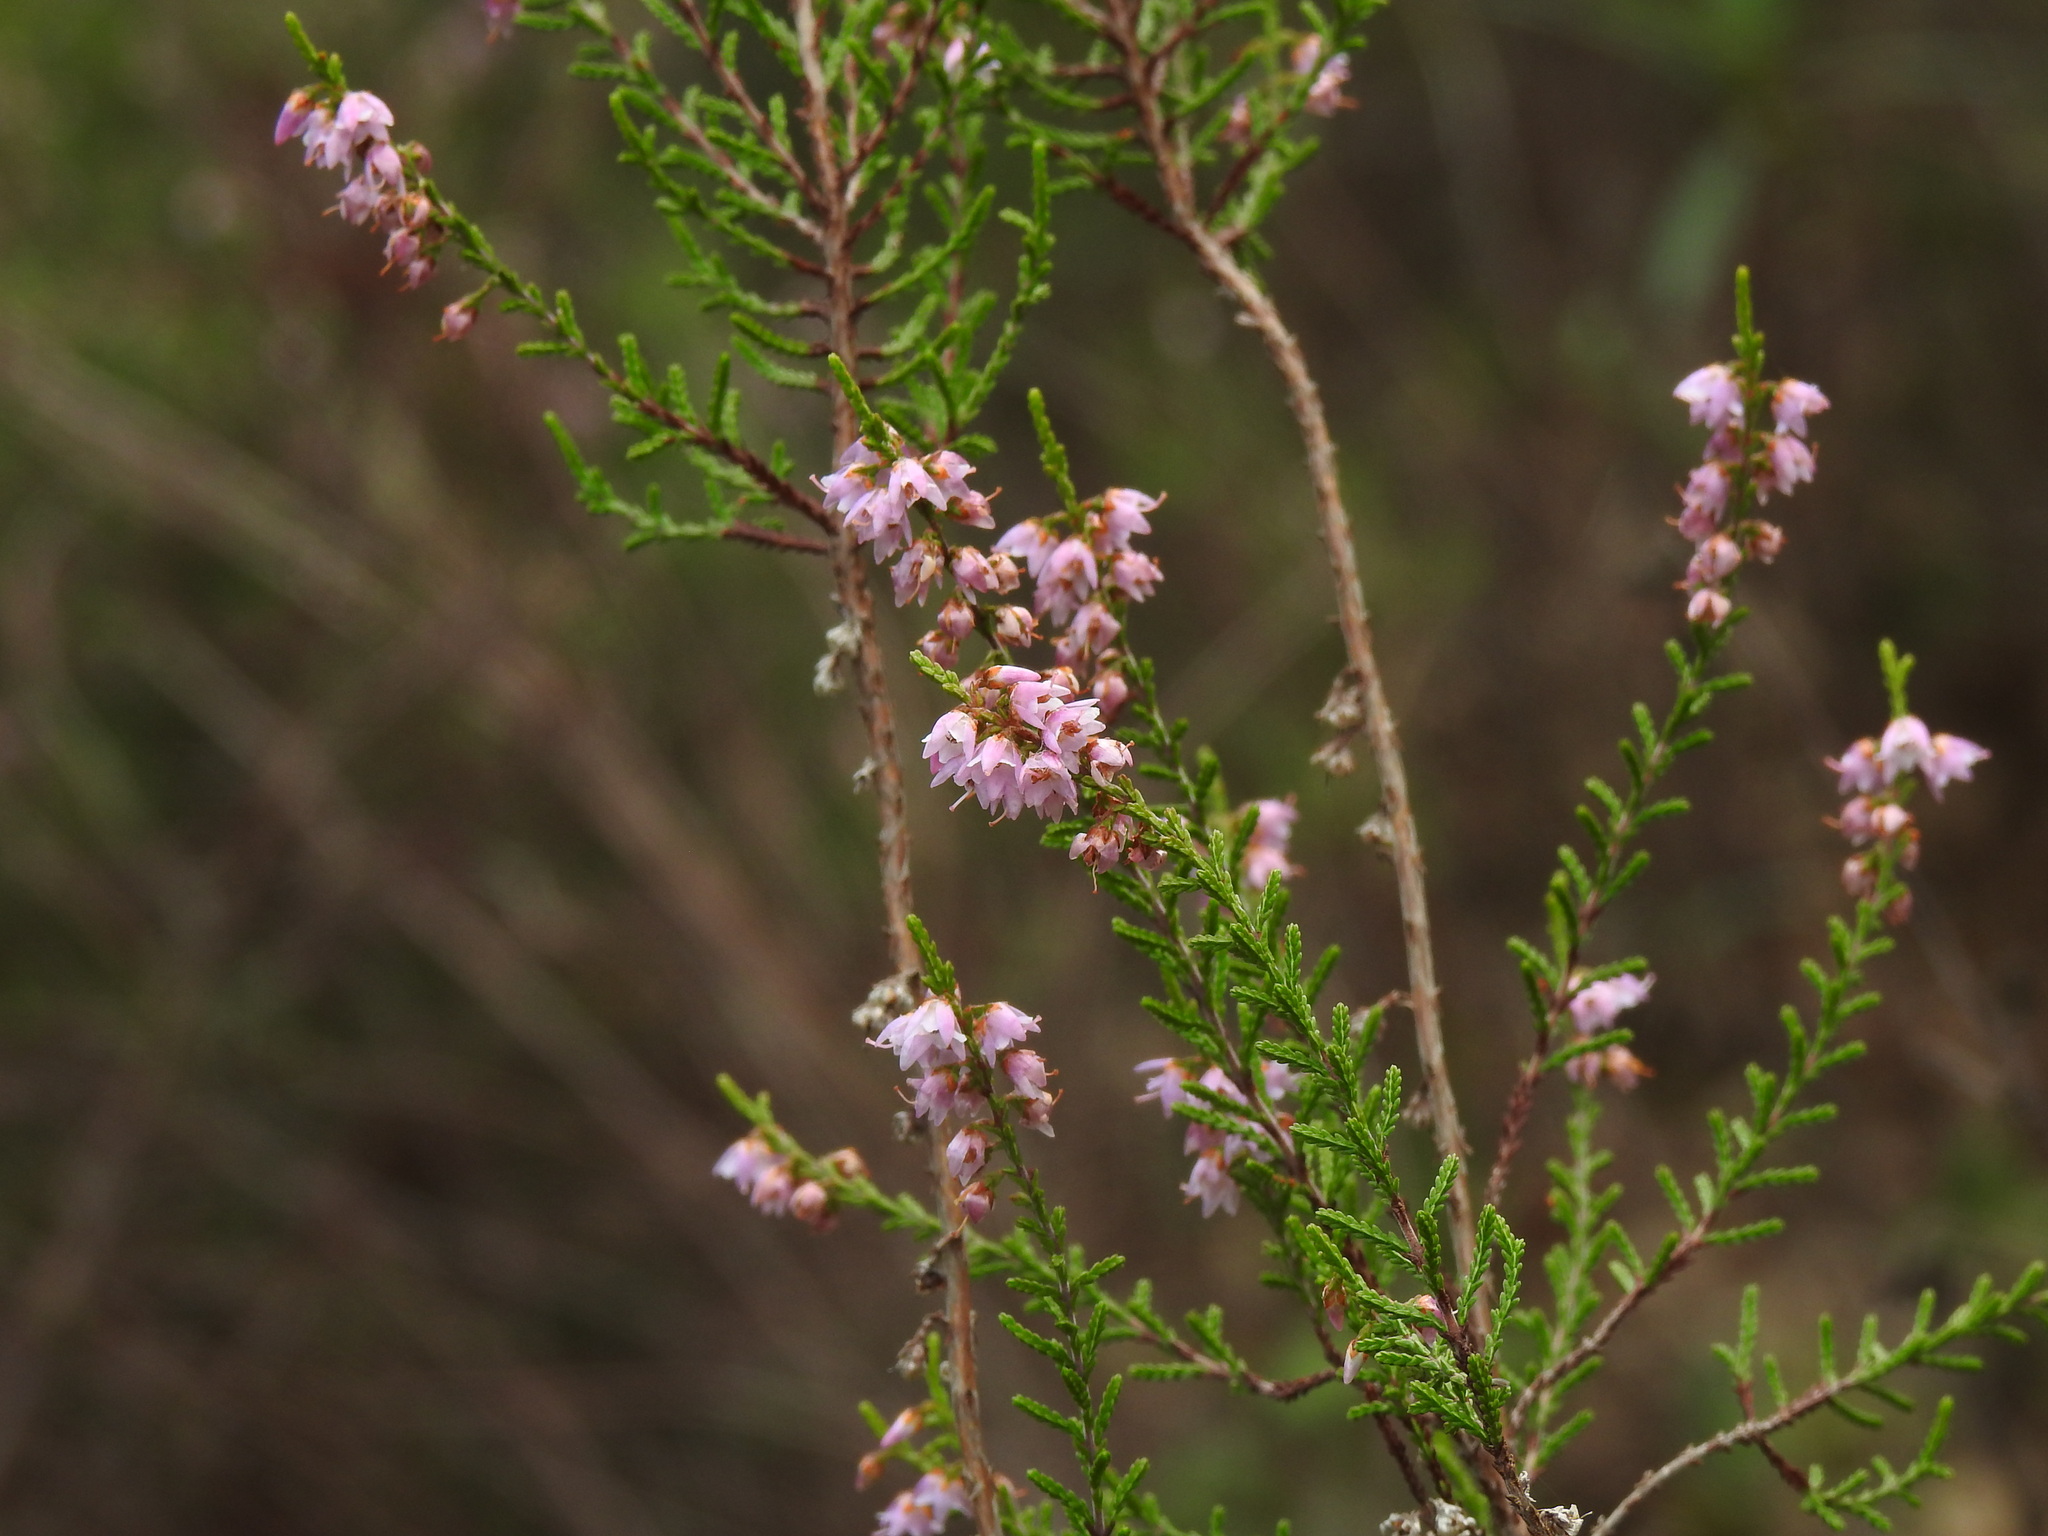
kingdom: Plantae
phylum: Tracheophyta
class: Magnoliopsida
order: Ericales
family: Ericaceae
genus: Calluna
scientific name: Calluna vulgaris
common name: Heather
